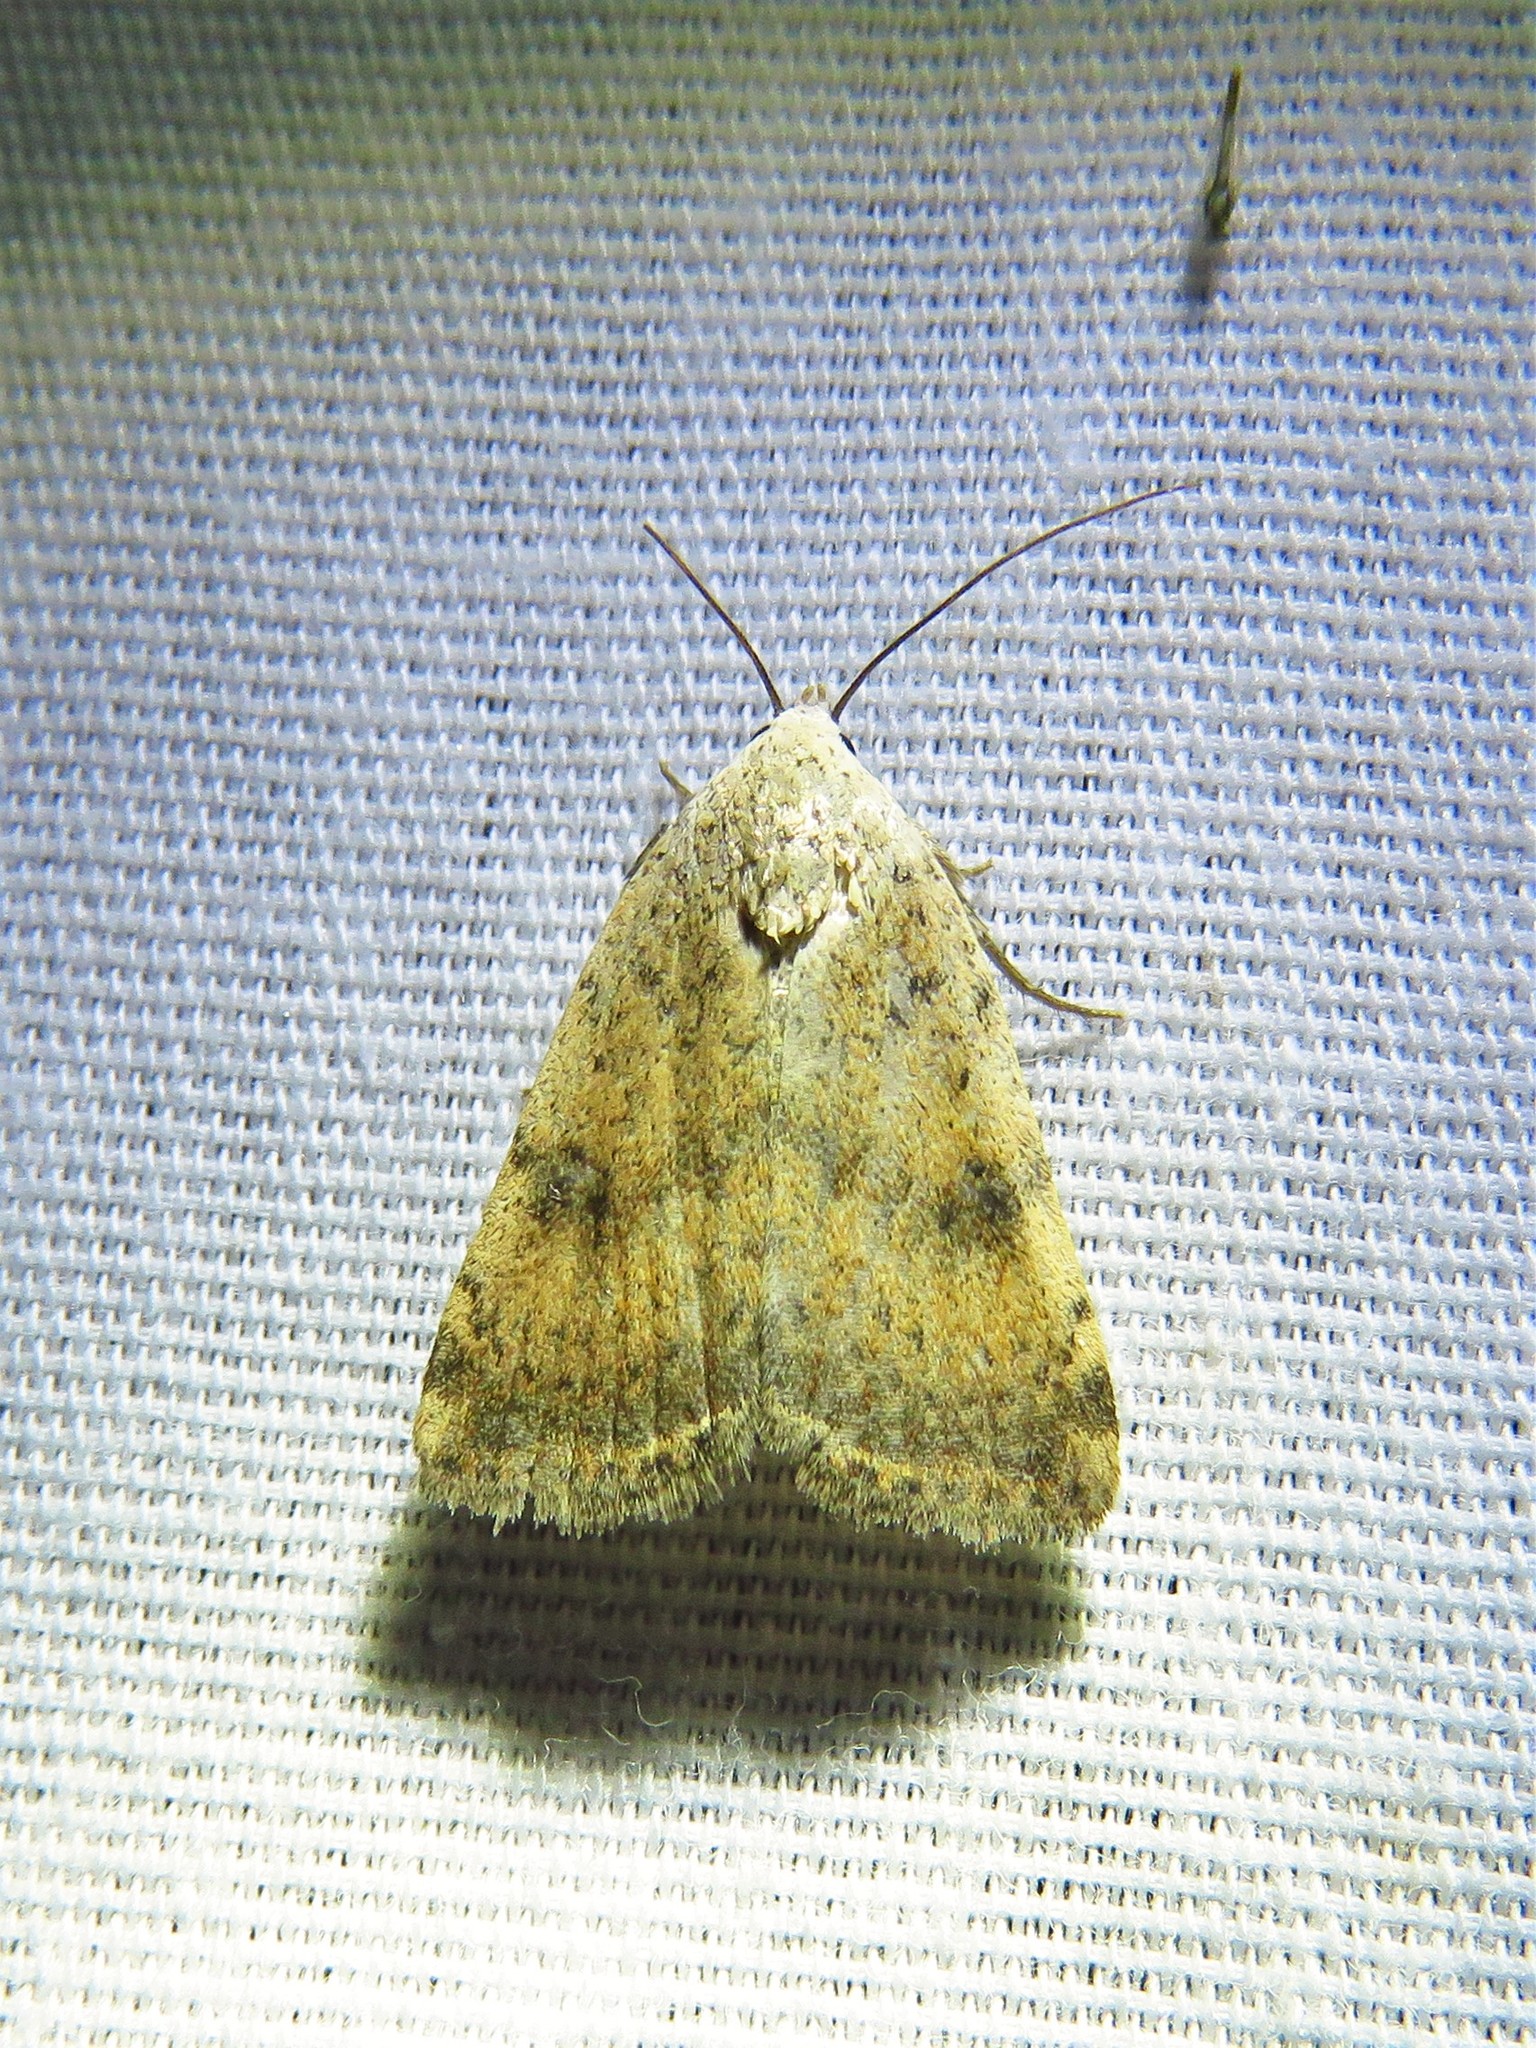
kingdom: Animalia
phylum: Arthropoda
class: Insecta
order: Lepidoptera
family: Noctuidae
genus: Micrathetis
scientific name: Micrathetis triplex
